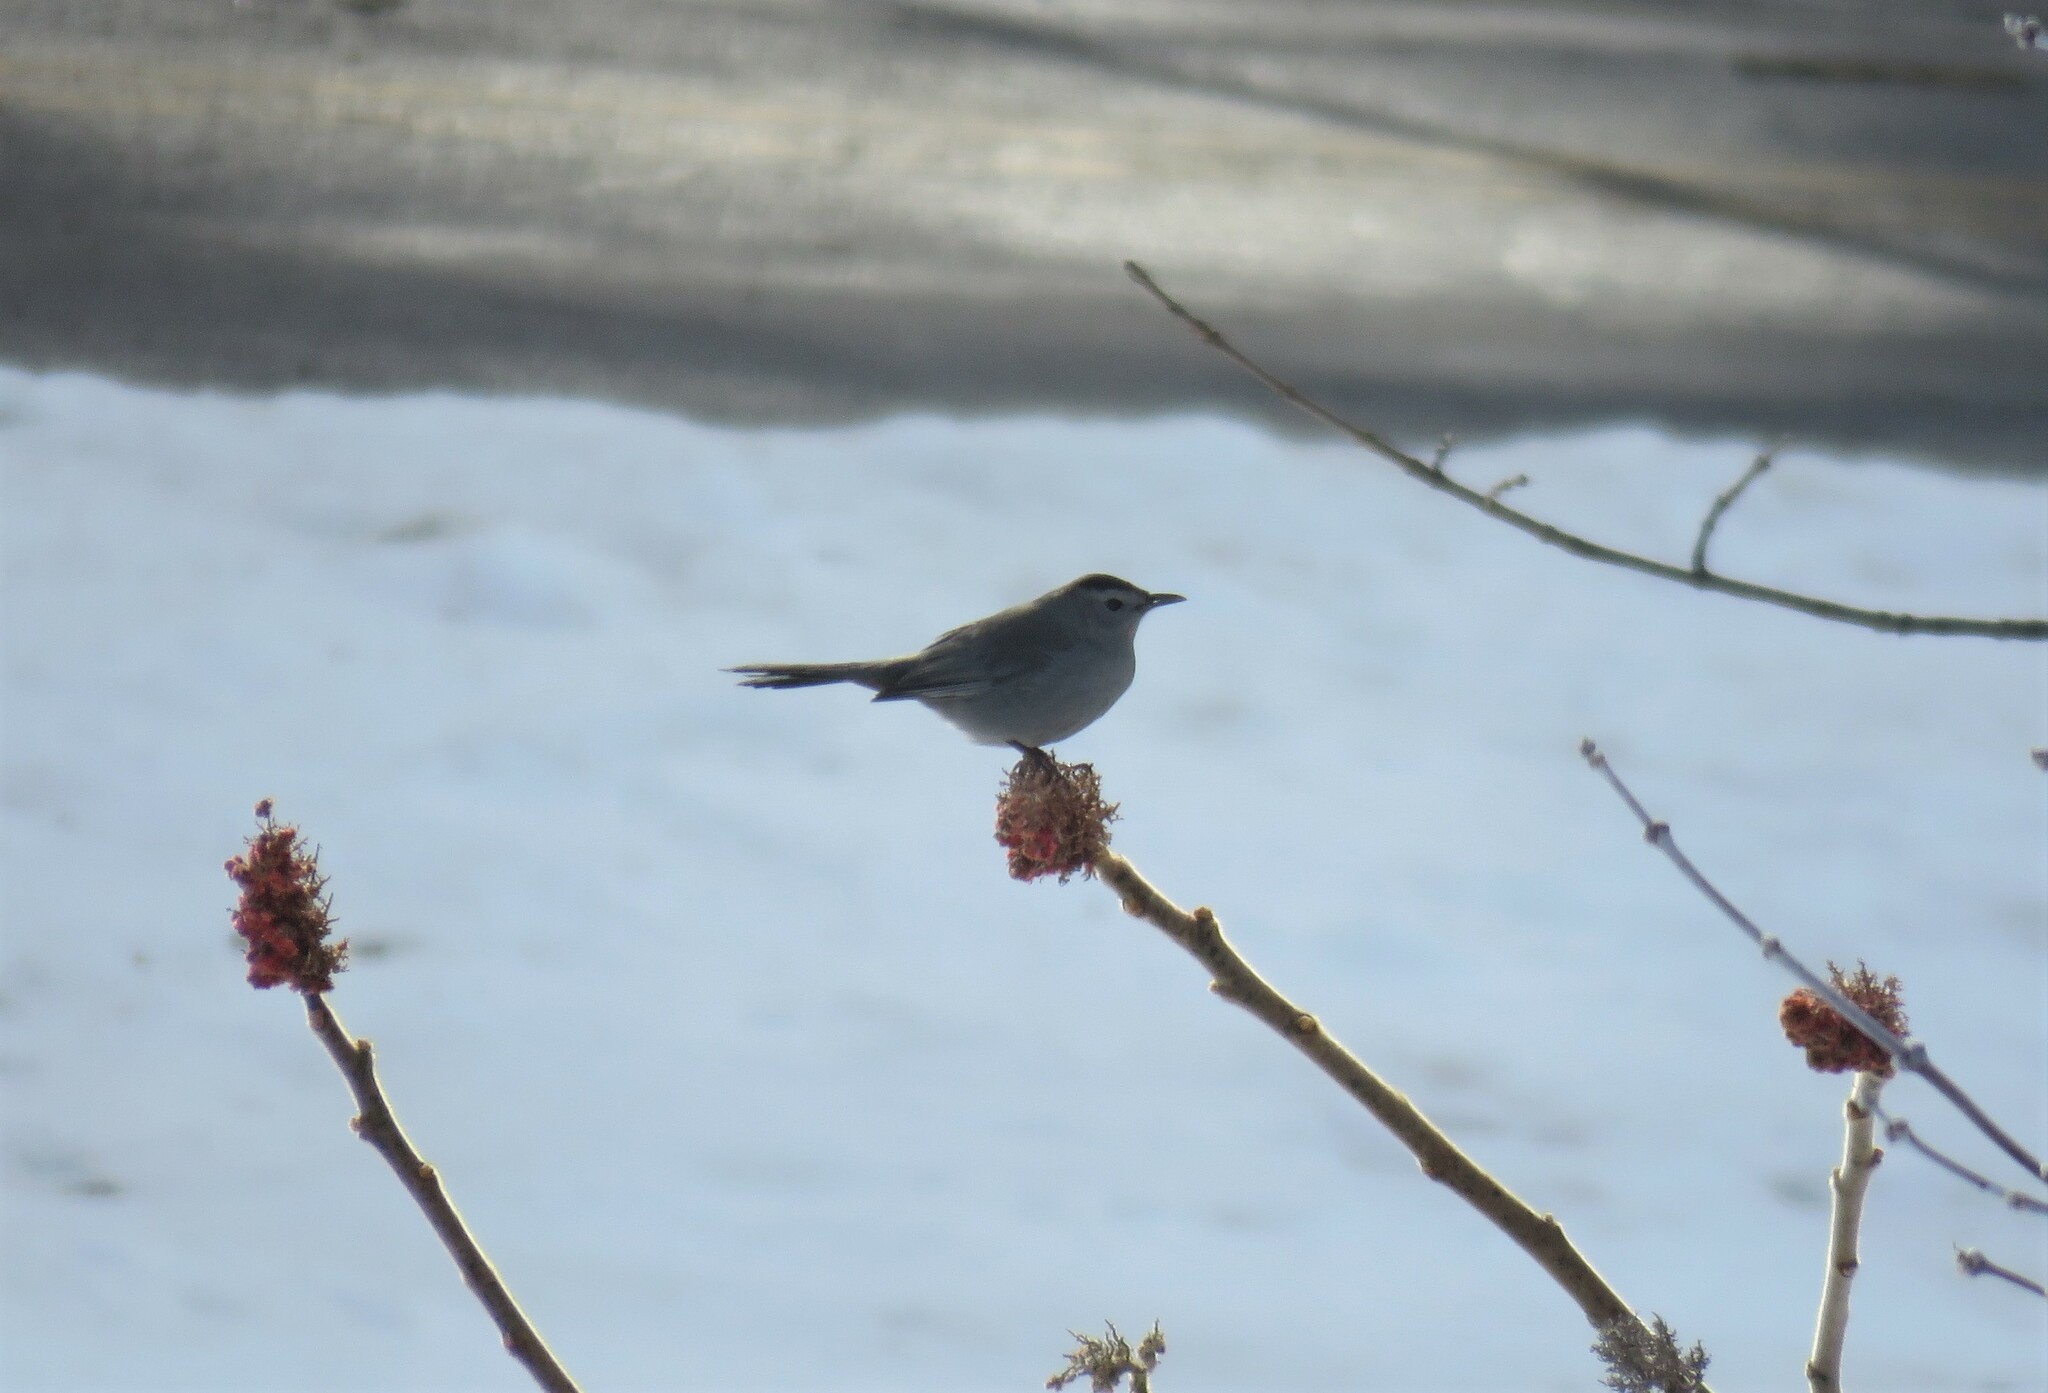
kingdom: Animalia
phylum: Chordata
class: Aves
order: Passeriformes
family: Mimidae
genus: Dumetella
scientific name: Dumetella carolinensis
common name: Gray catbird
